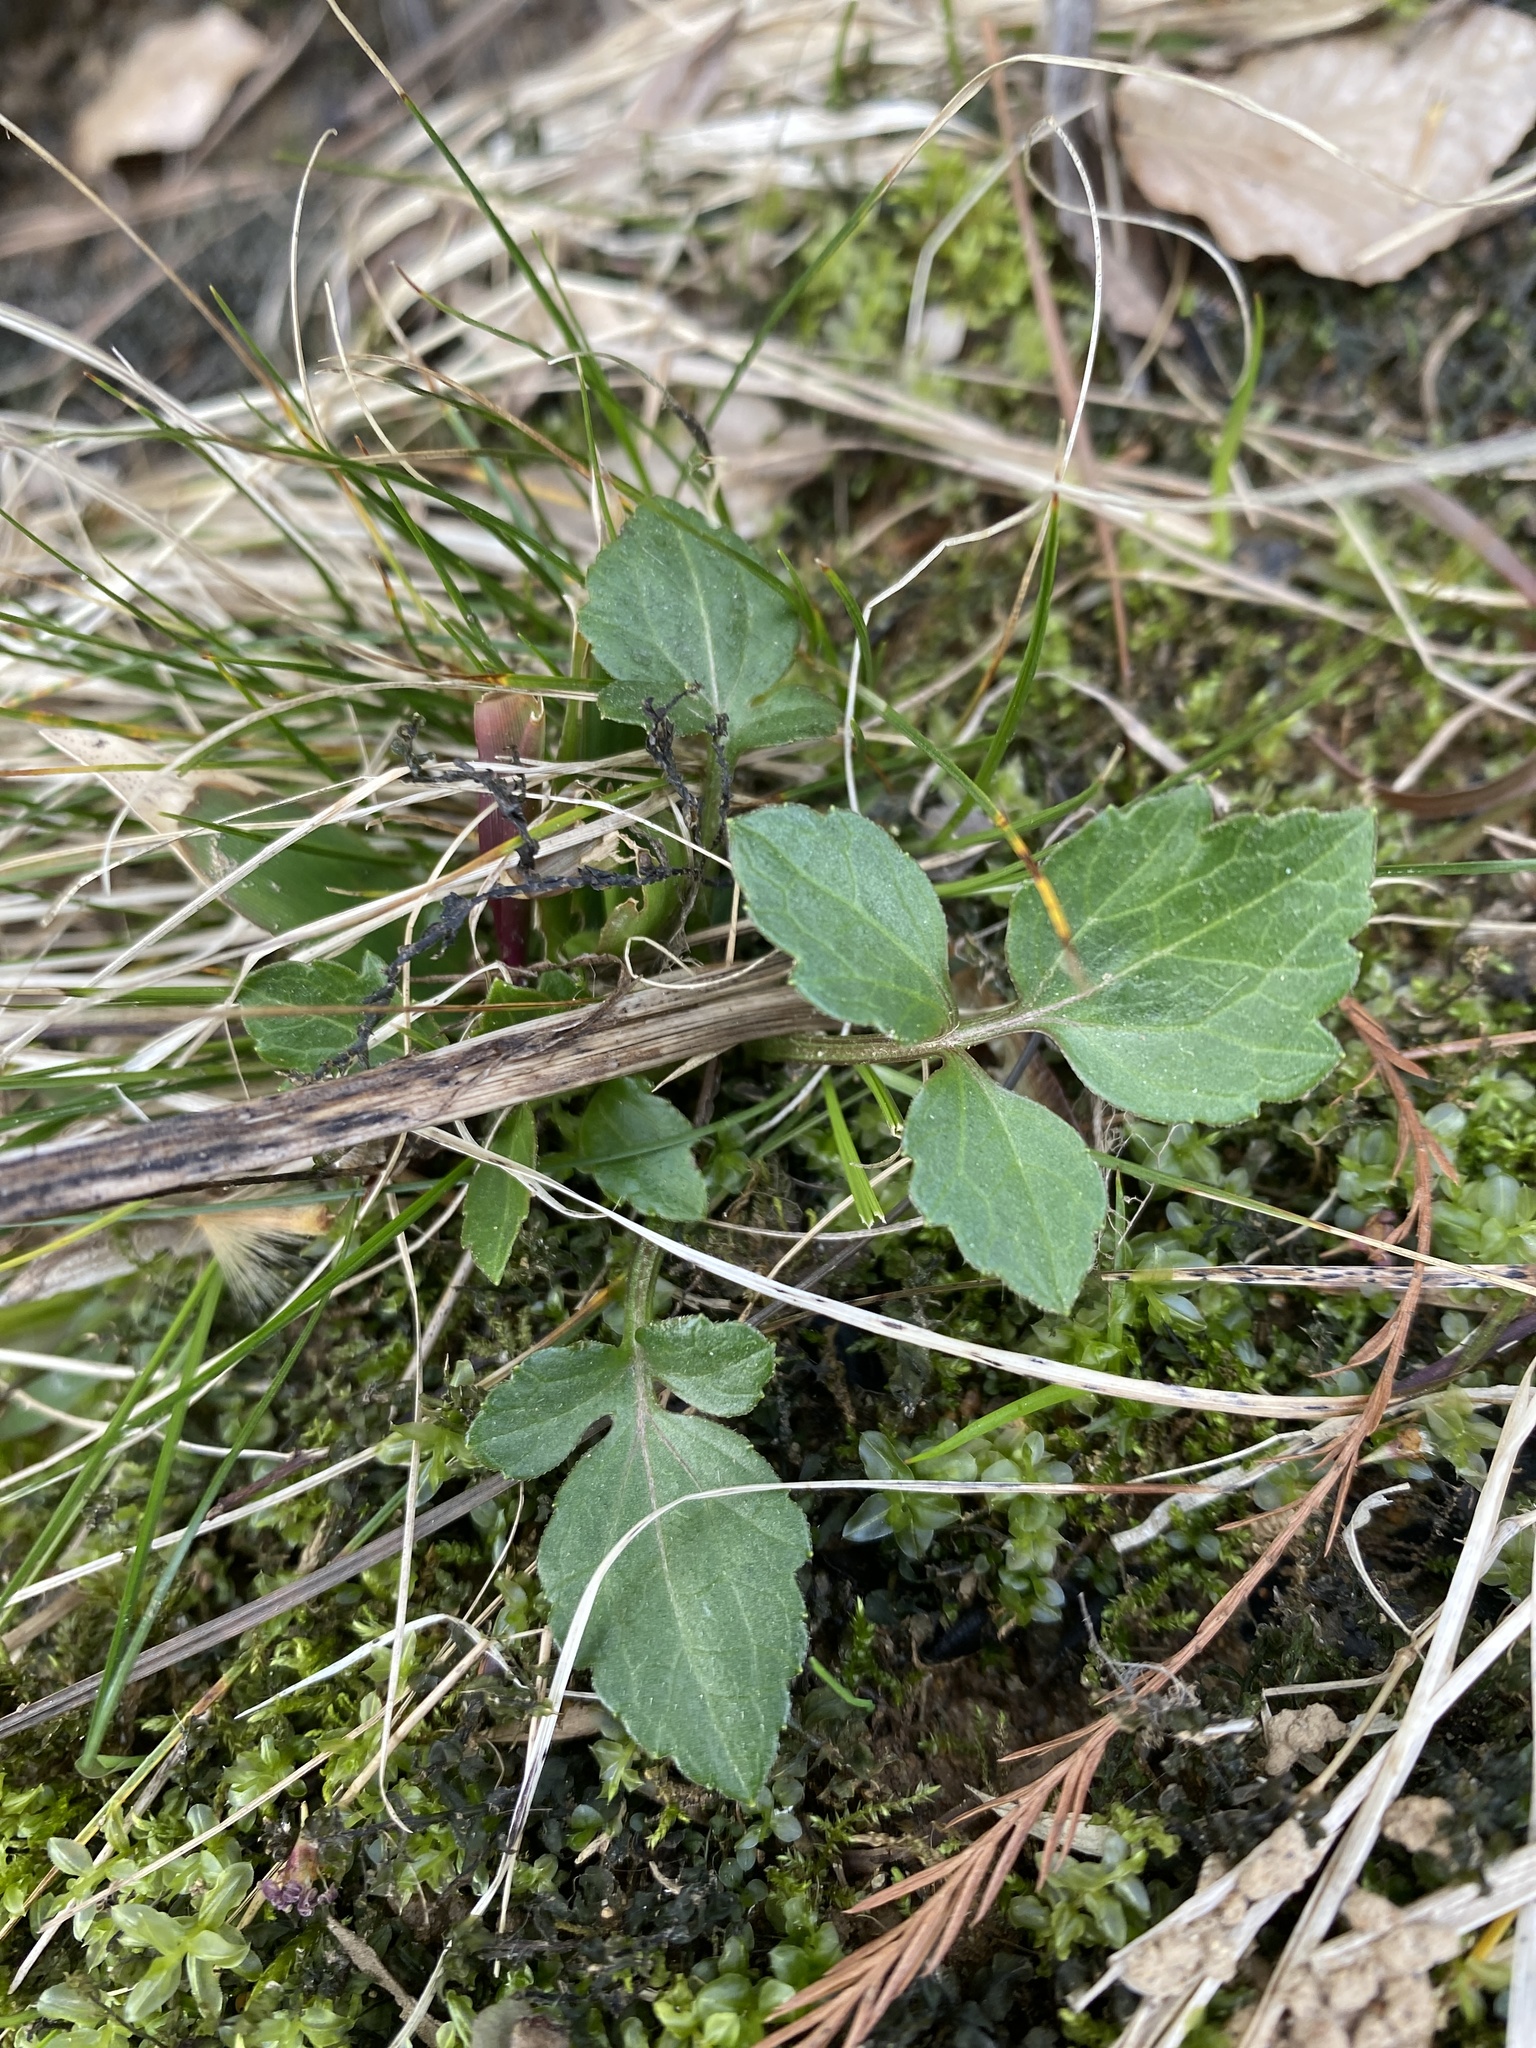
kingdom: Plantae
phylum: Tracheophyta
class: Magnoliopsida
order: Asterales
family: Asteraceae
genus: Rudbeckia
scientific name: Rudbeckia laciniata
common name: Coneflower
